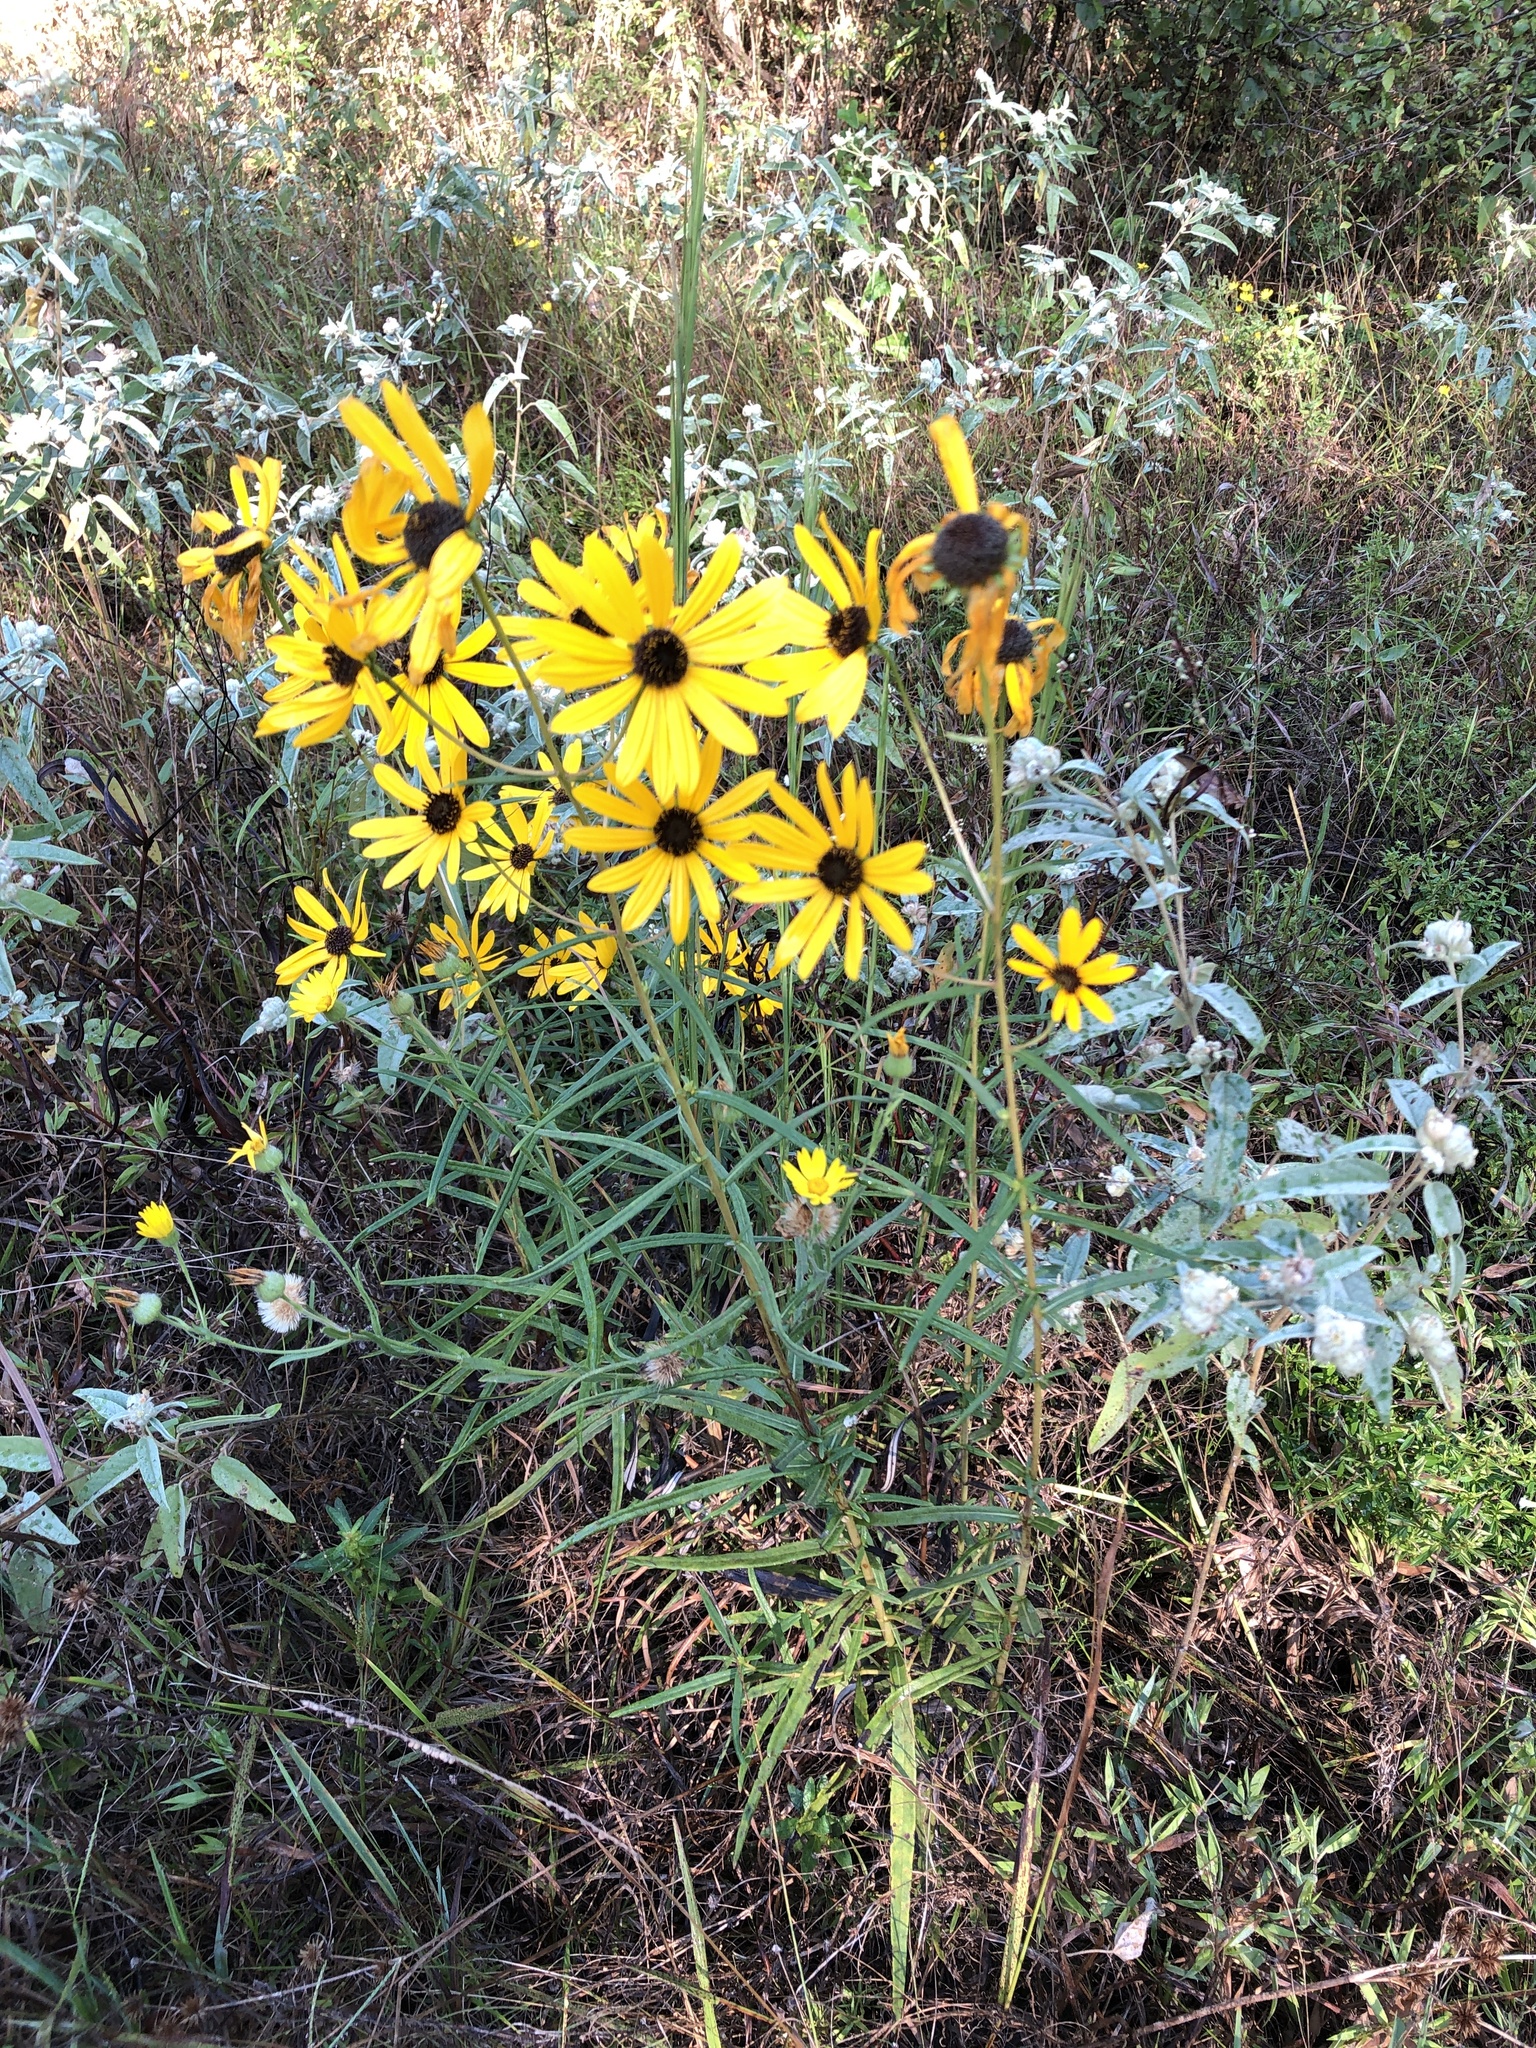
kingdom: Plantae
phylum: Tracheophyta
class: Magnoliopsida
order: Asterales
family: Asteraceae
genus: Helianthus
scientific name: Helianthus angustifolius
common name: Swamp sunflower
